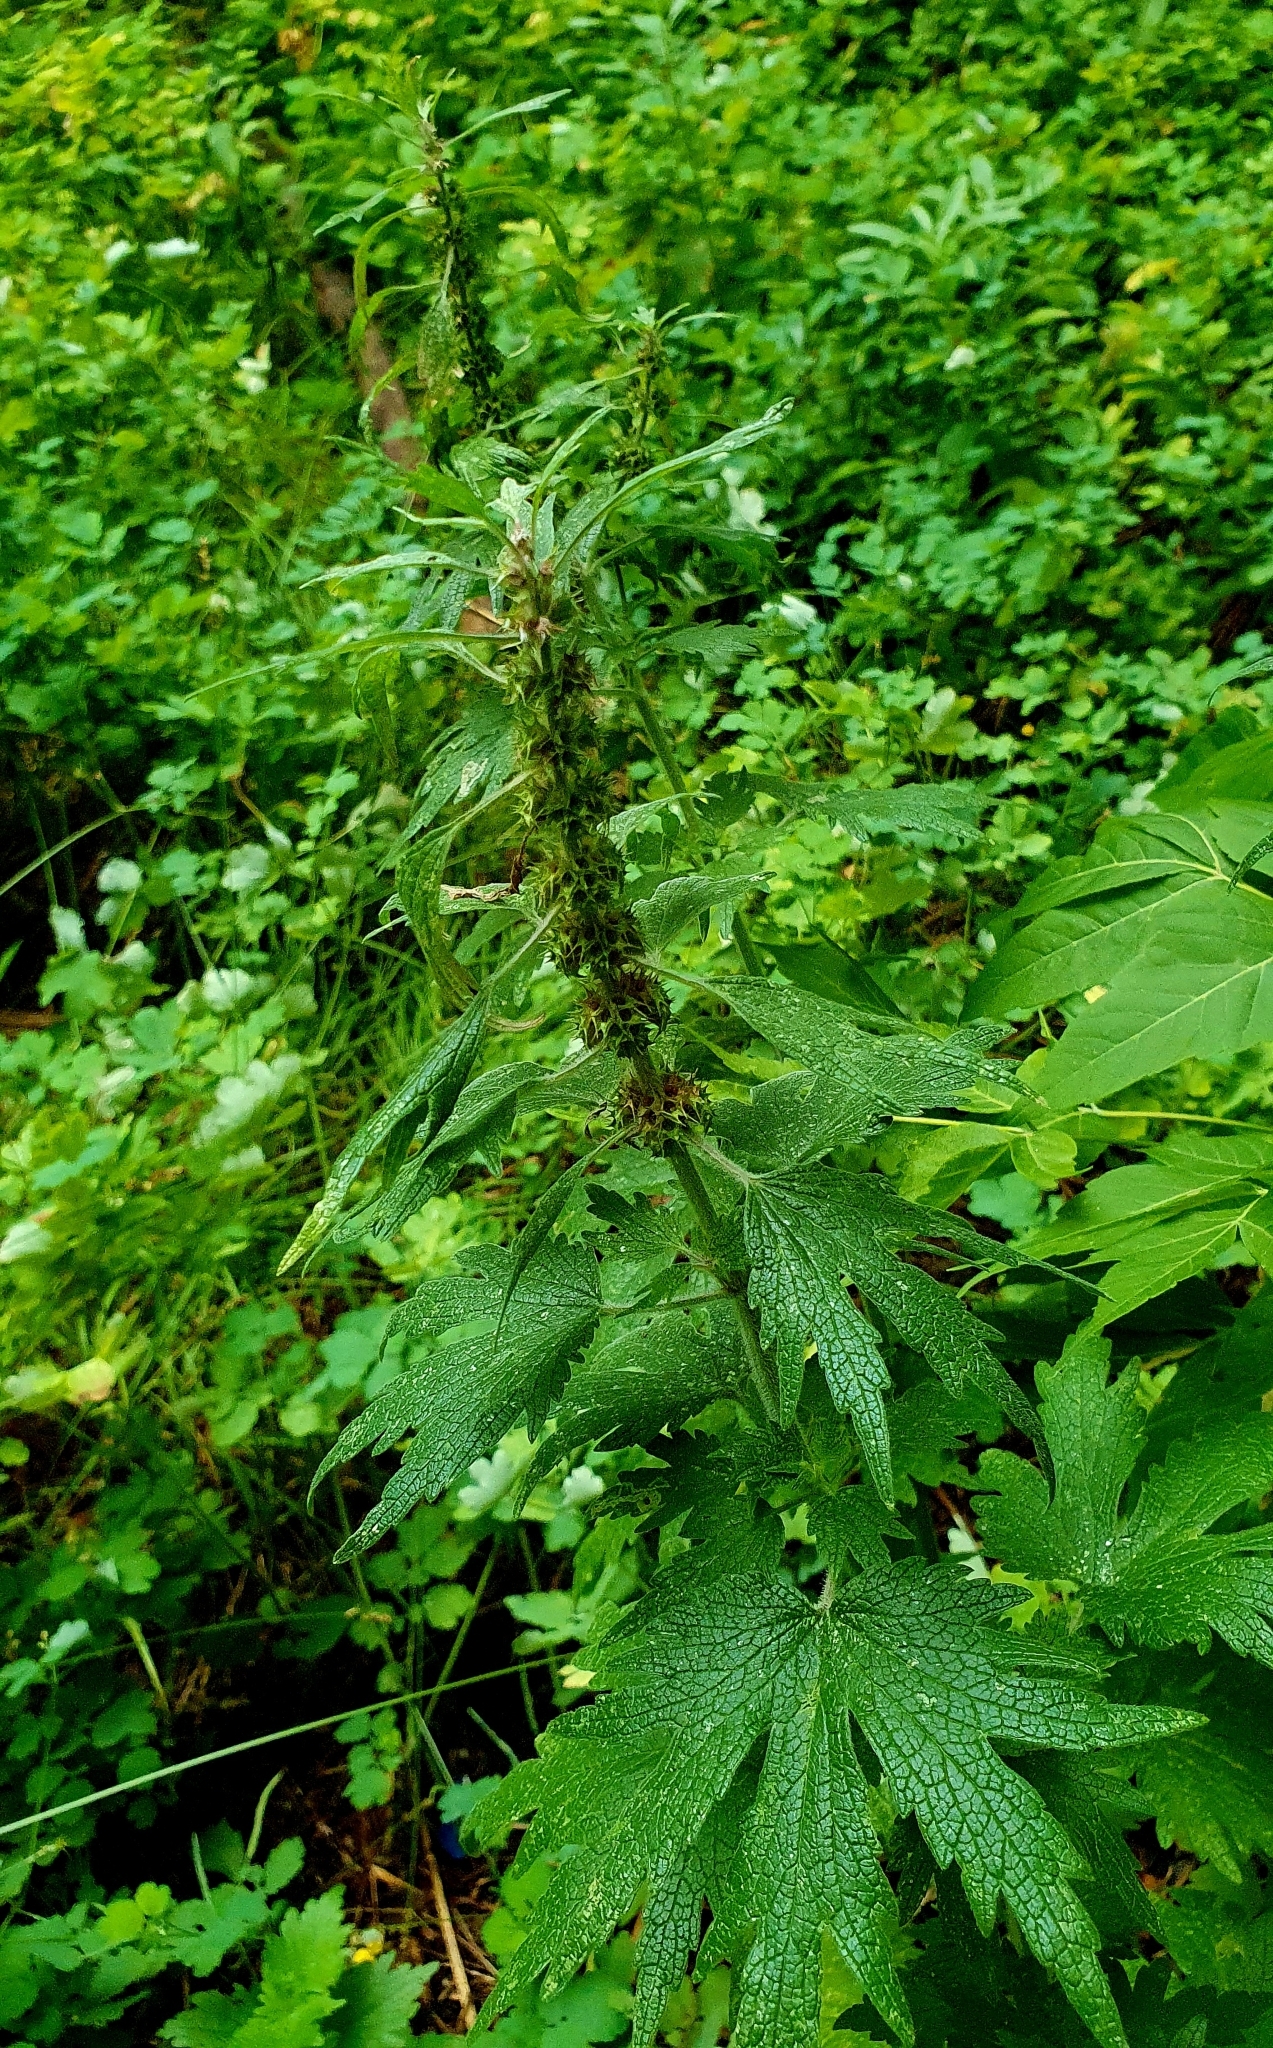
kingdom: Plantae
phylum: Tracheophyta
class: Magnoliopsida
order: Lamiales
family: Lamiaceae
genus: Leonurus
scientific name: Leonurus quinquelobatus
